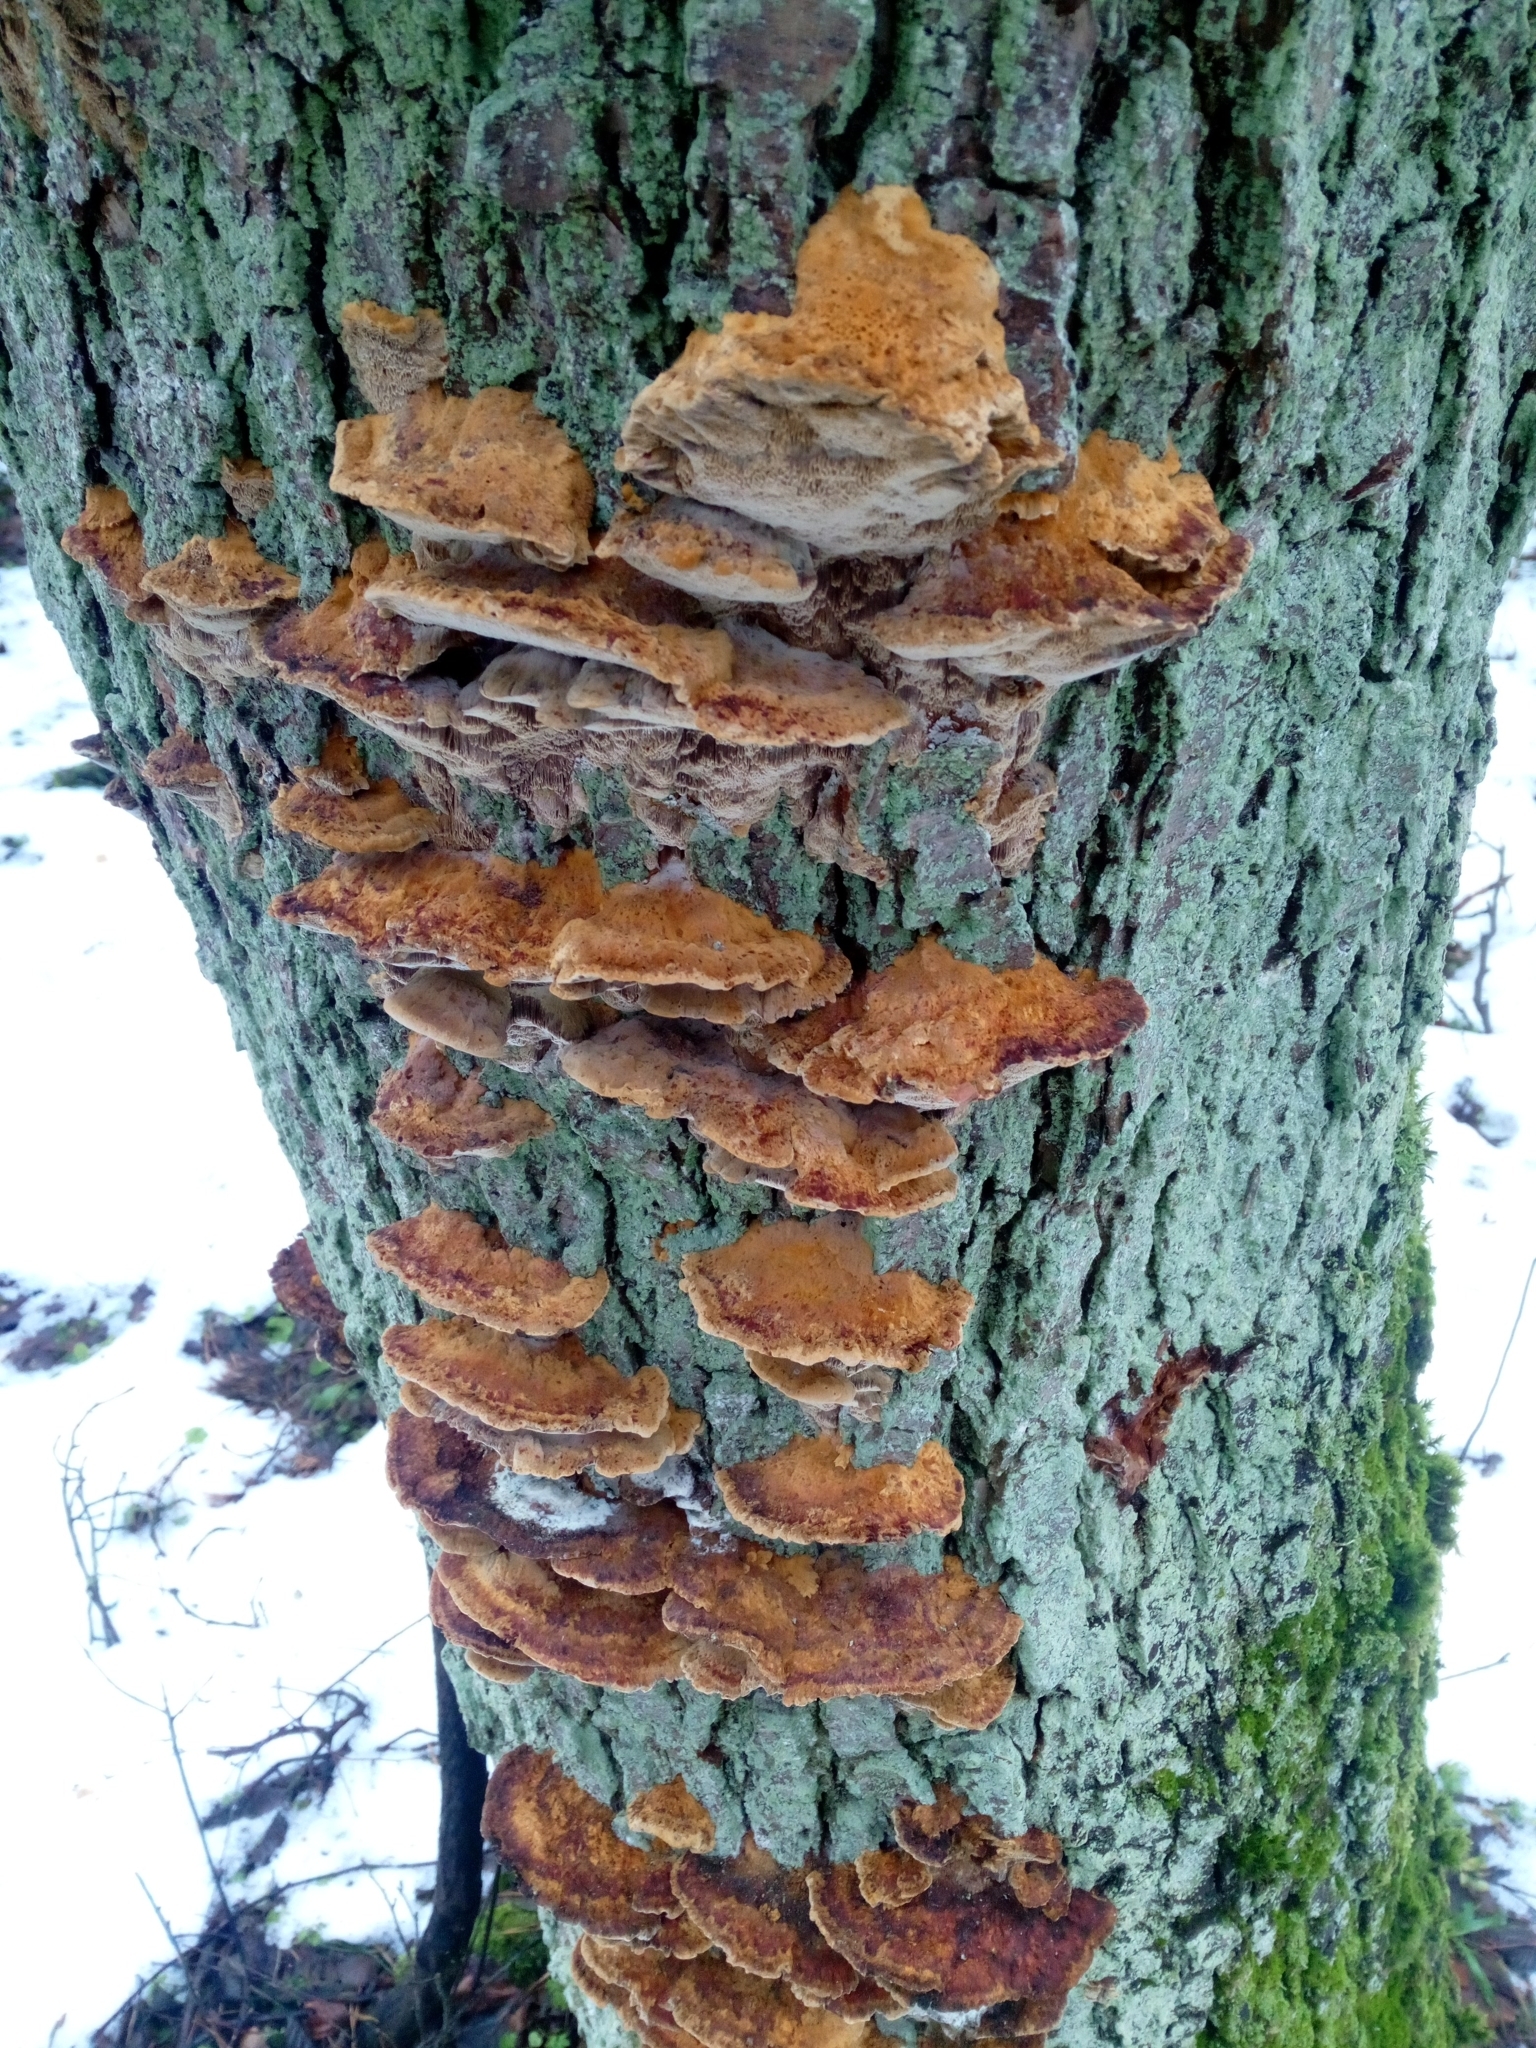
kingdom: Fungi
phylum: Basidiomycota
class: Agaricomycetes
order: Hymenochaetales
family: Hymenochaetaceae
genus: Xanthoporia
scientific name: Xanthoporia radiata
